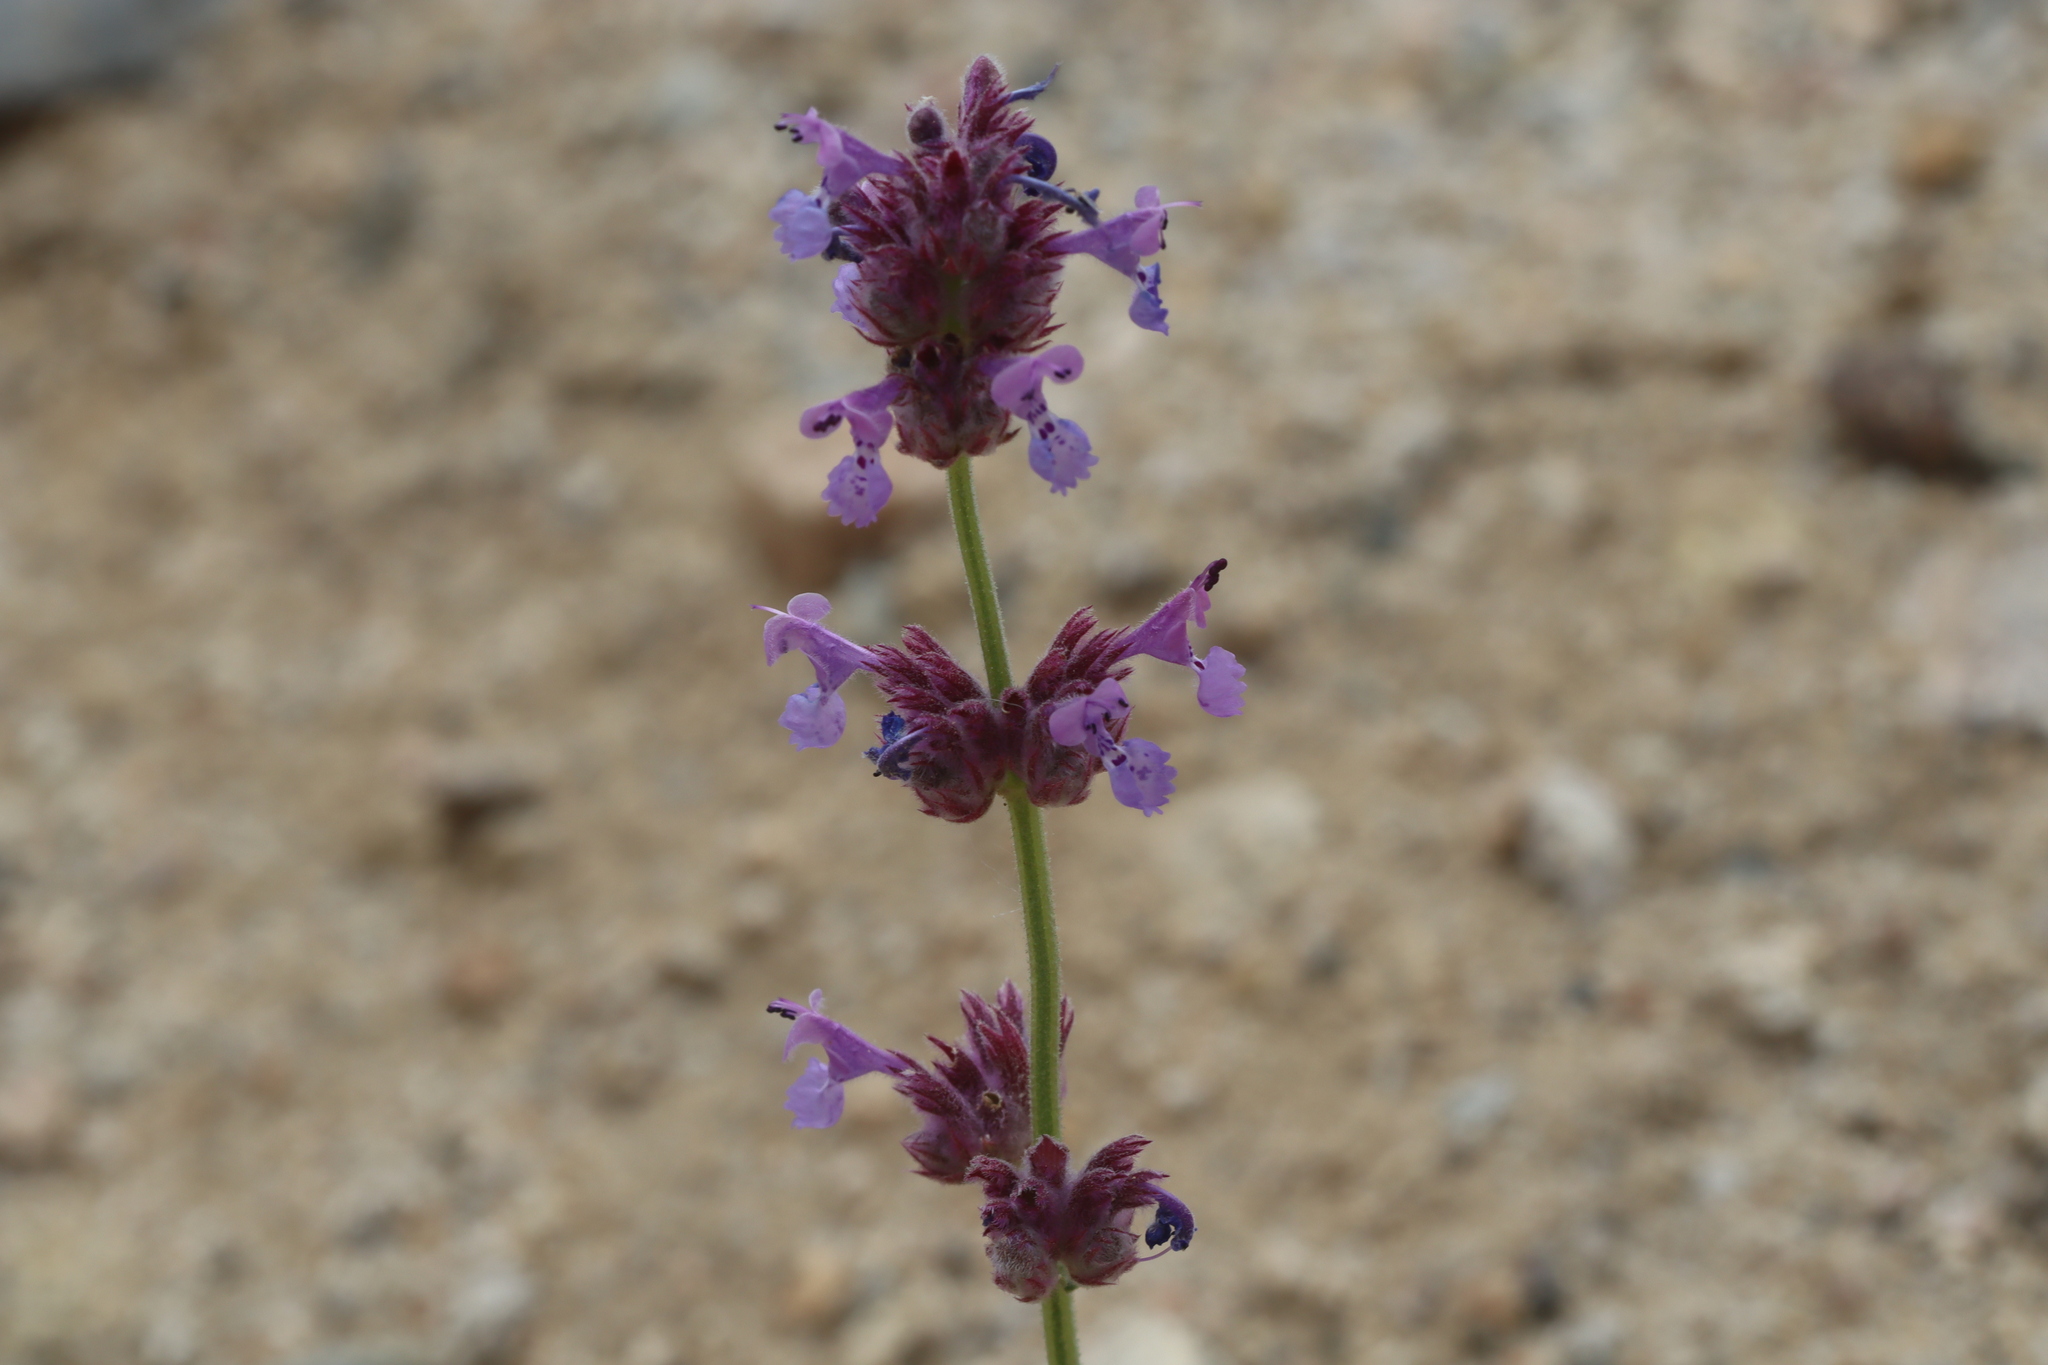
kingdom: Plantae
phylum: Tracheophyta
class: Magnoliopsida
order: Lamiales
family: Lamiaceae
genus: Nepeta
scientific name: Nepeta floccosa
